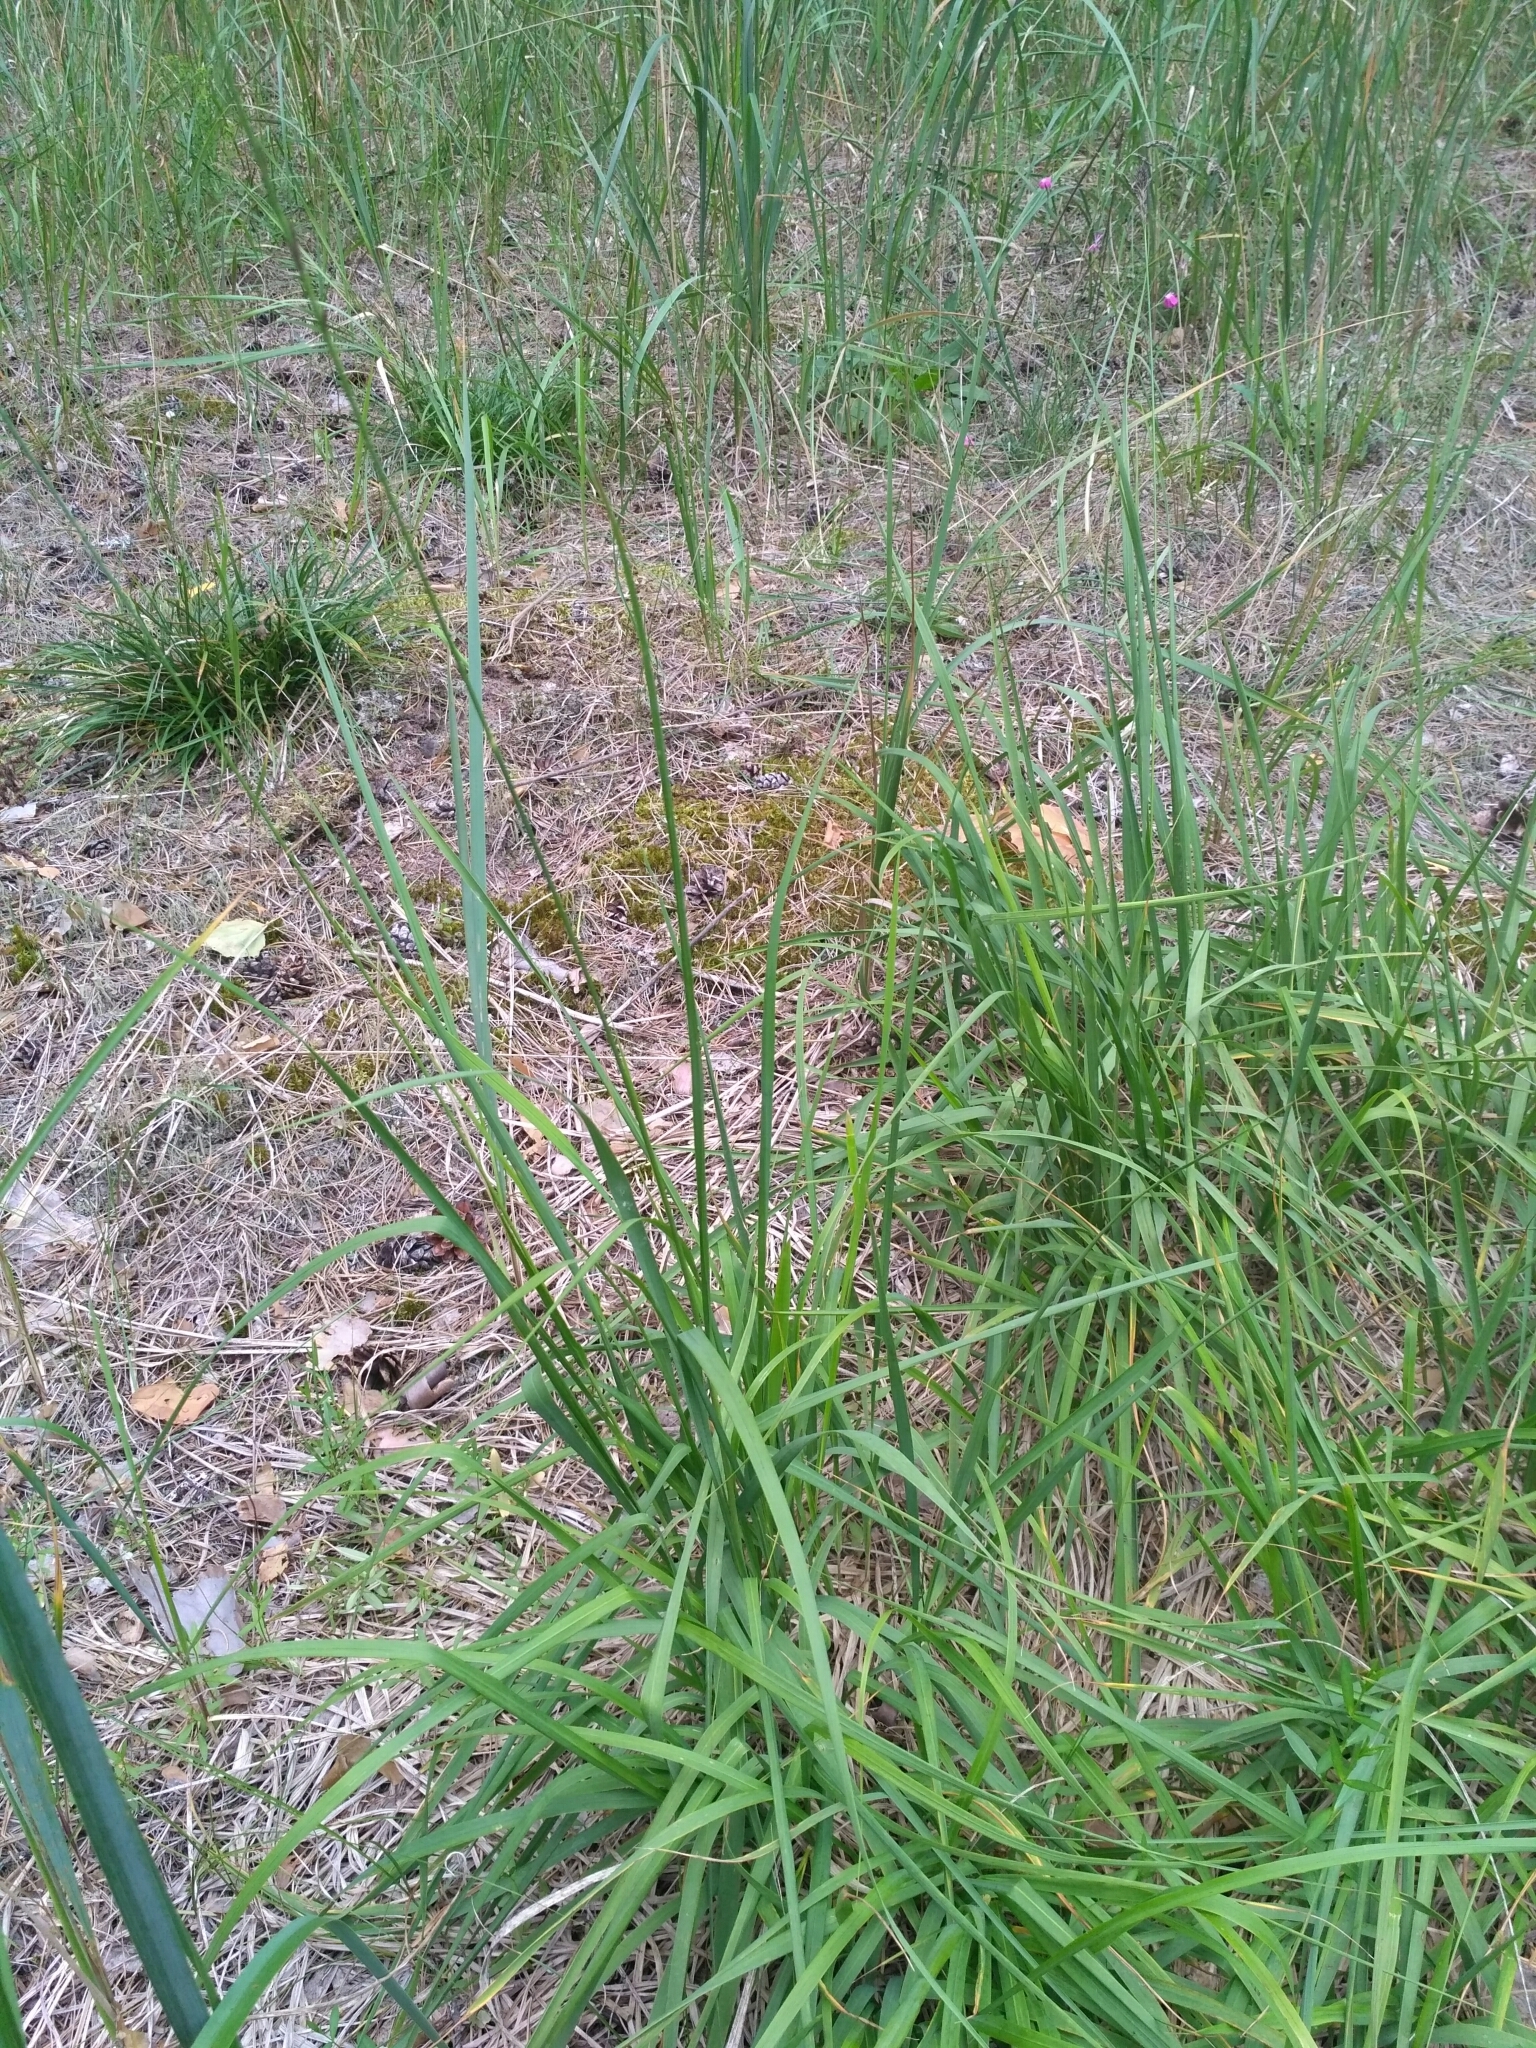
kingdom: Plantae
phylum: Tracheophyta
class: Liliopsida
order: Poales
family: Poaceae
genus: Molinia
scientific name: Molinia caerulea
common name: Purple moor-grass
